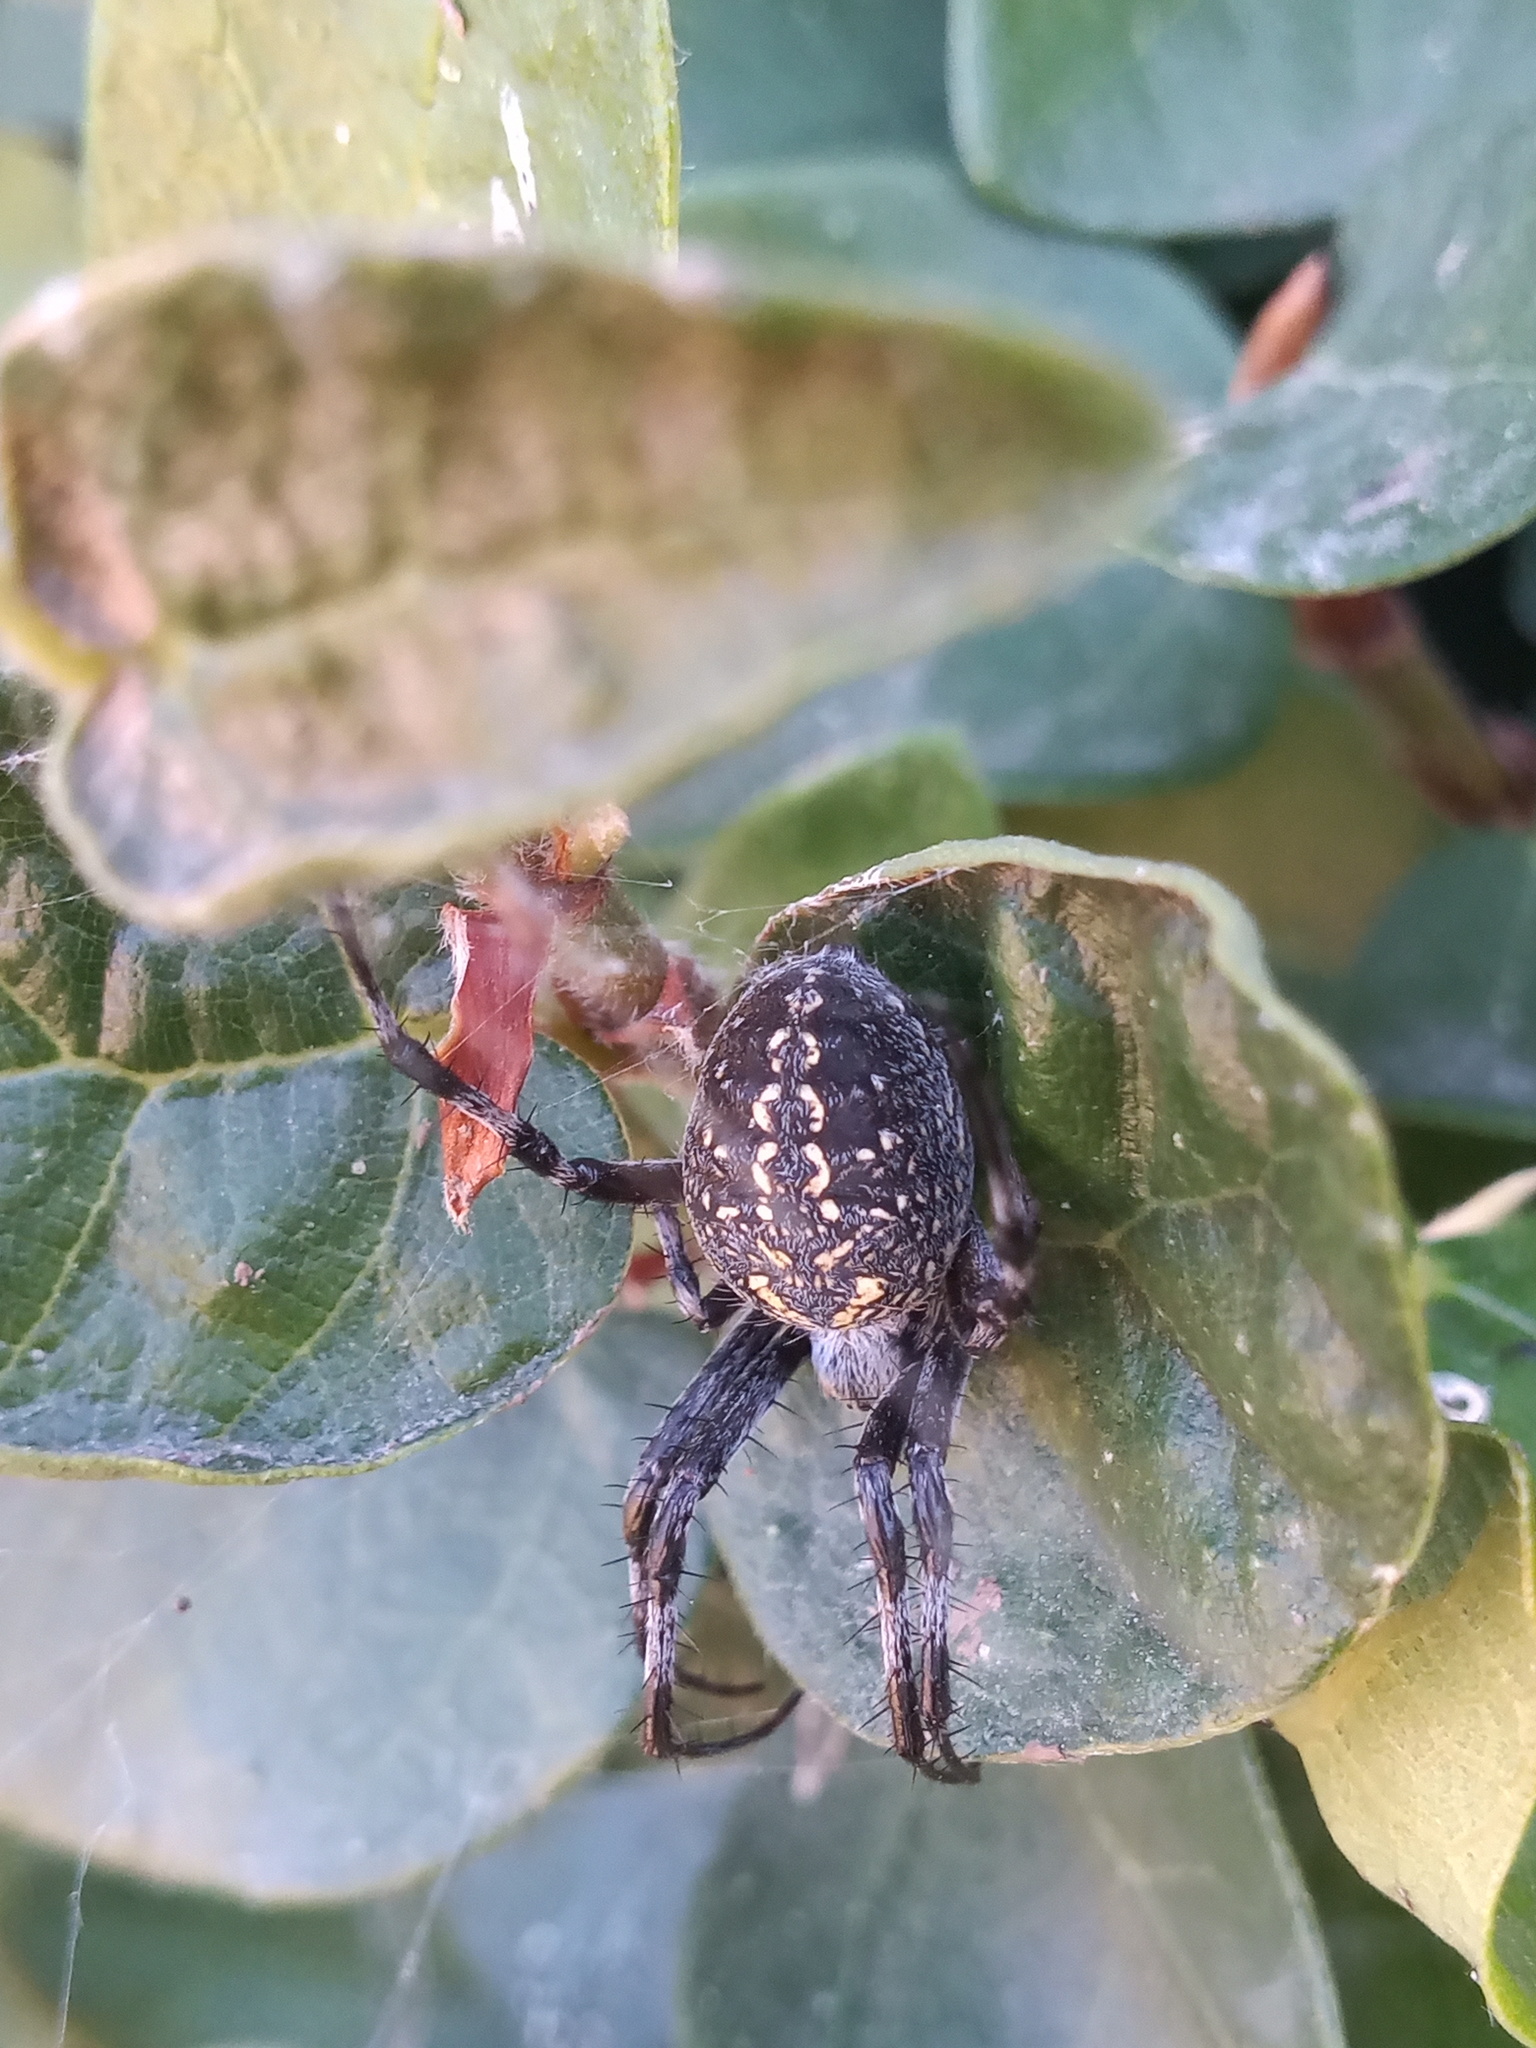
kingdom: Animalia
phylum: Arthropoda
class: Arachnida
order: Araneae
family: Araneidae
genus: Neoscona
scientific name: Neoscona oaxacensis
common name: Orb weavers
